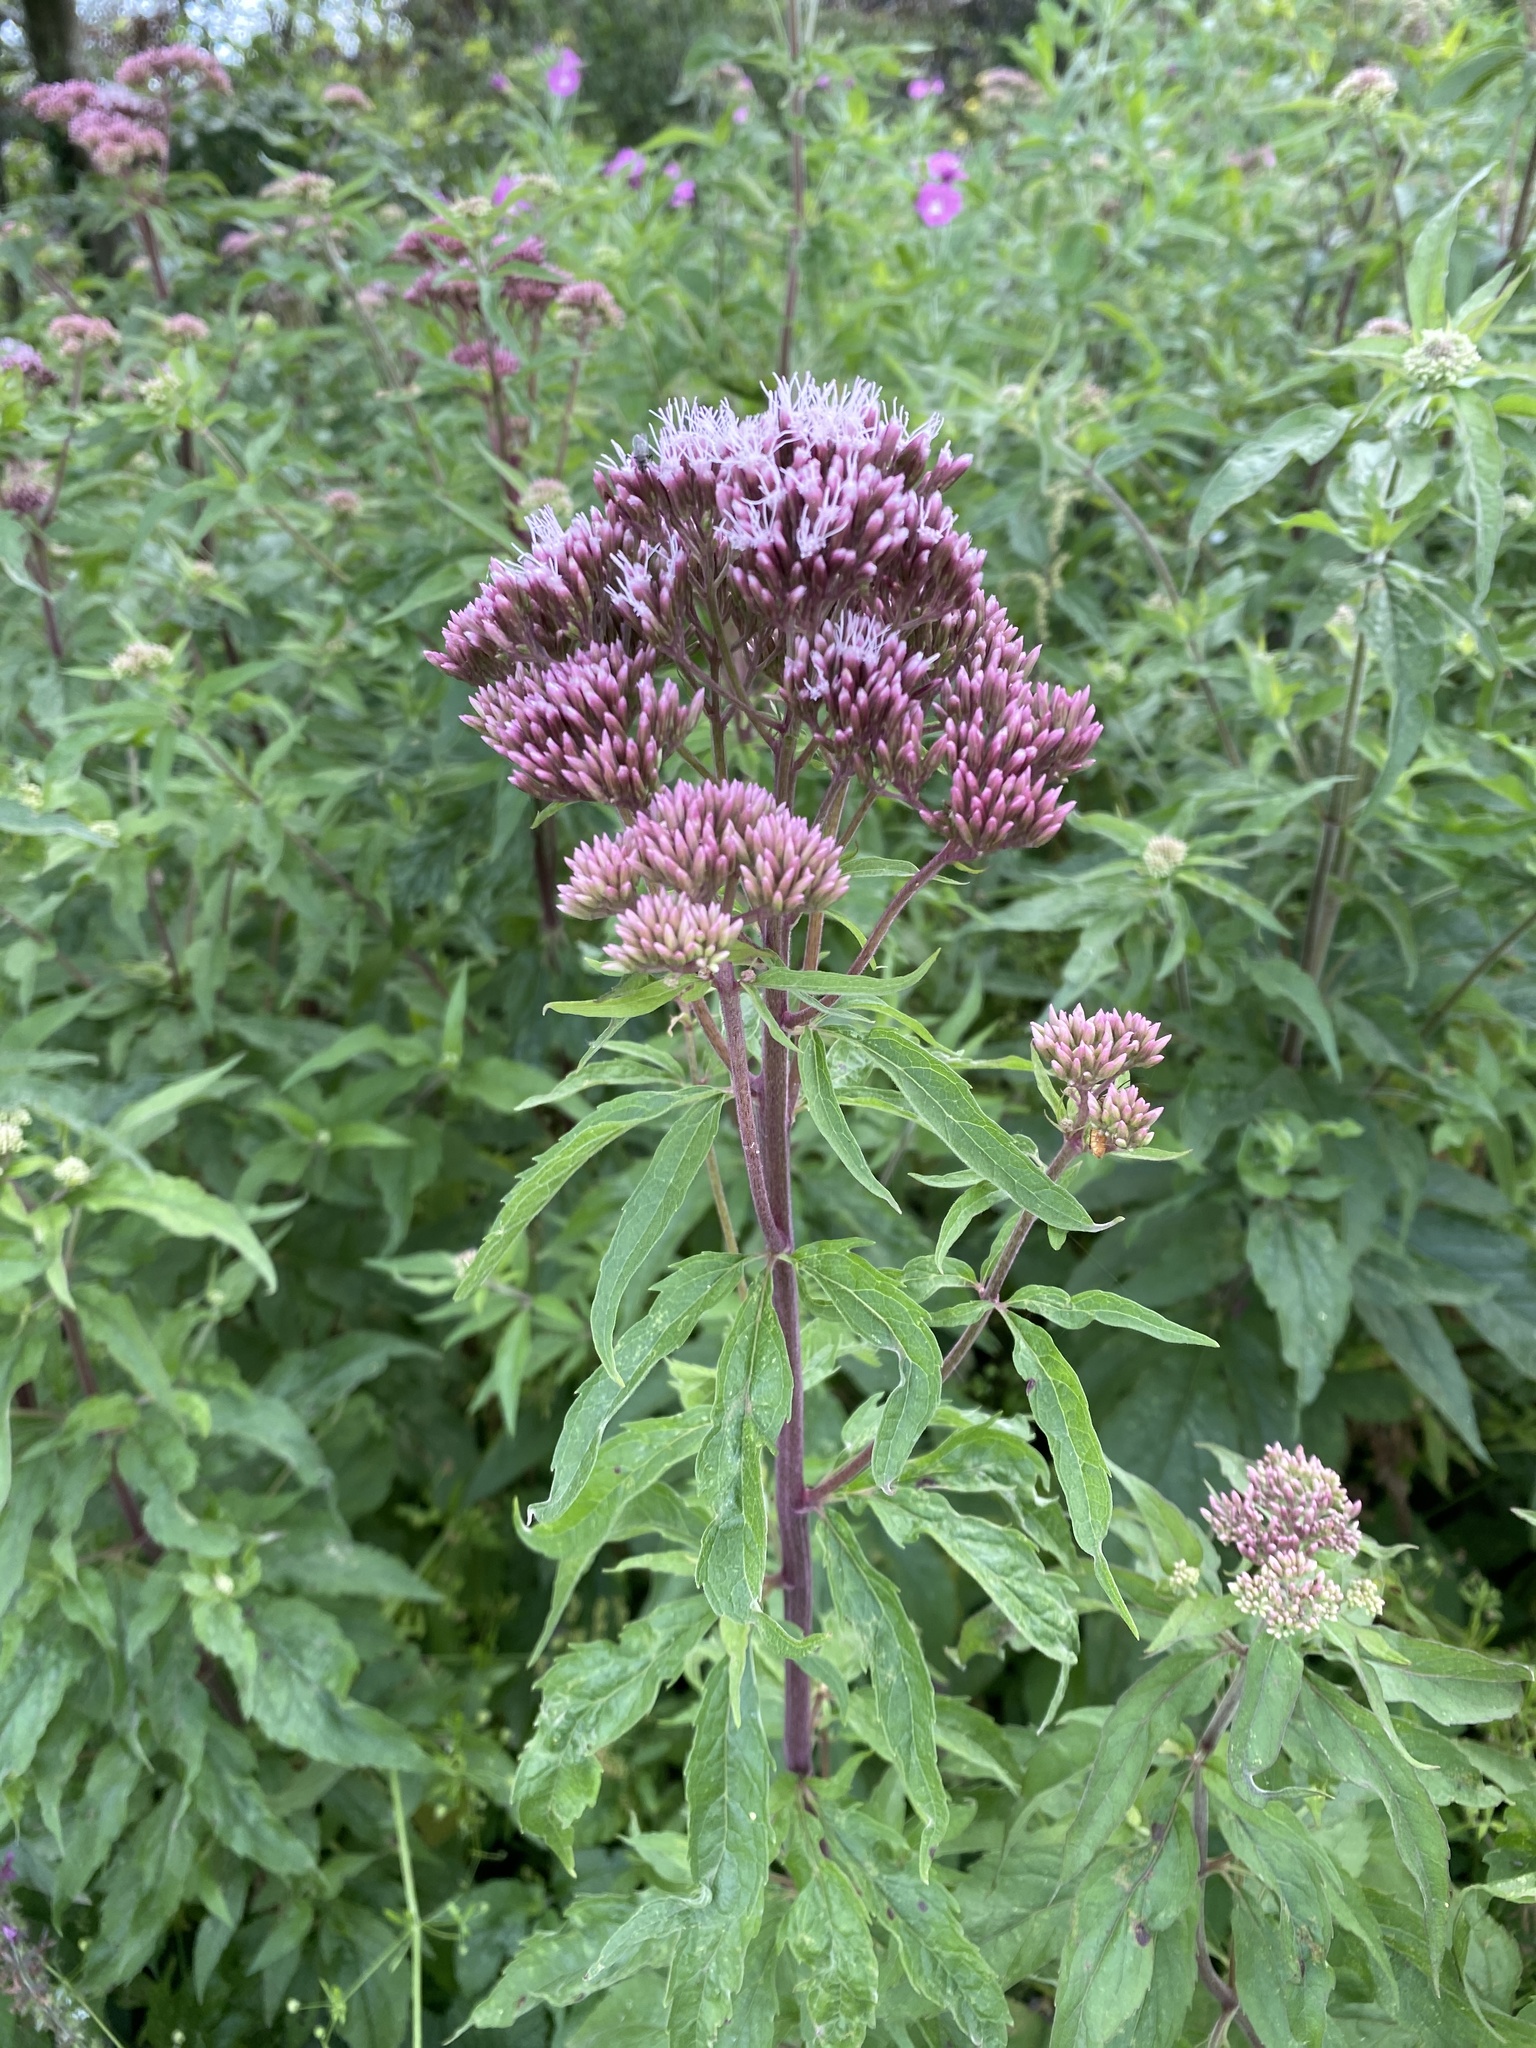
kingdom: Plantae
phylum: Tracheophyta
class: Magnoliopsida
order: Asterales
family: Asteraceae
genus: Eupatorium
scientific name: Eupatorium cannabinum
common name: Hemp-agrimony
